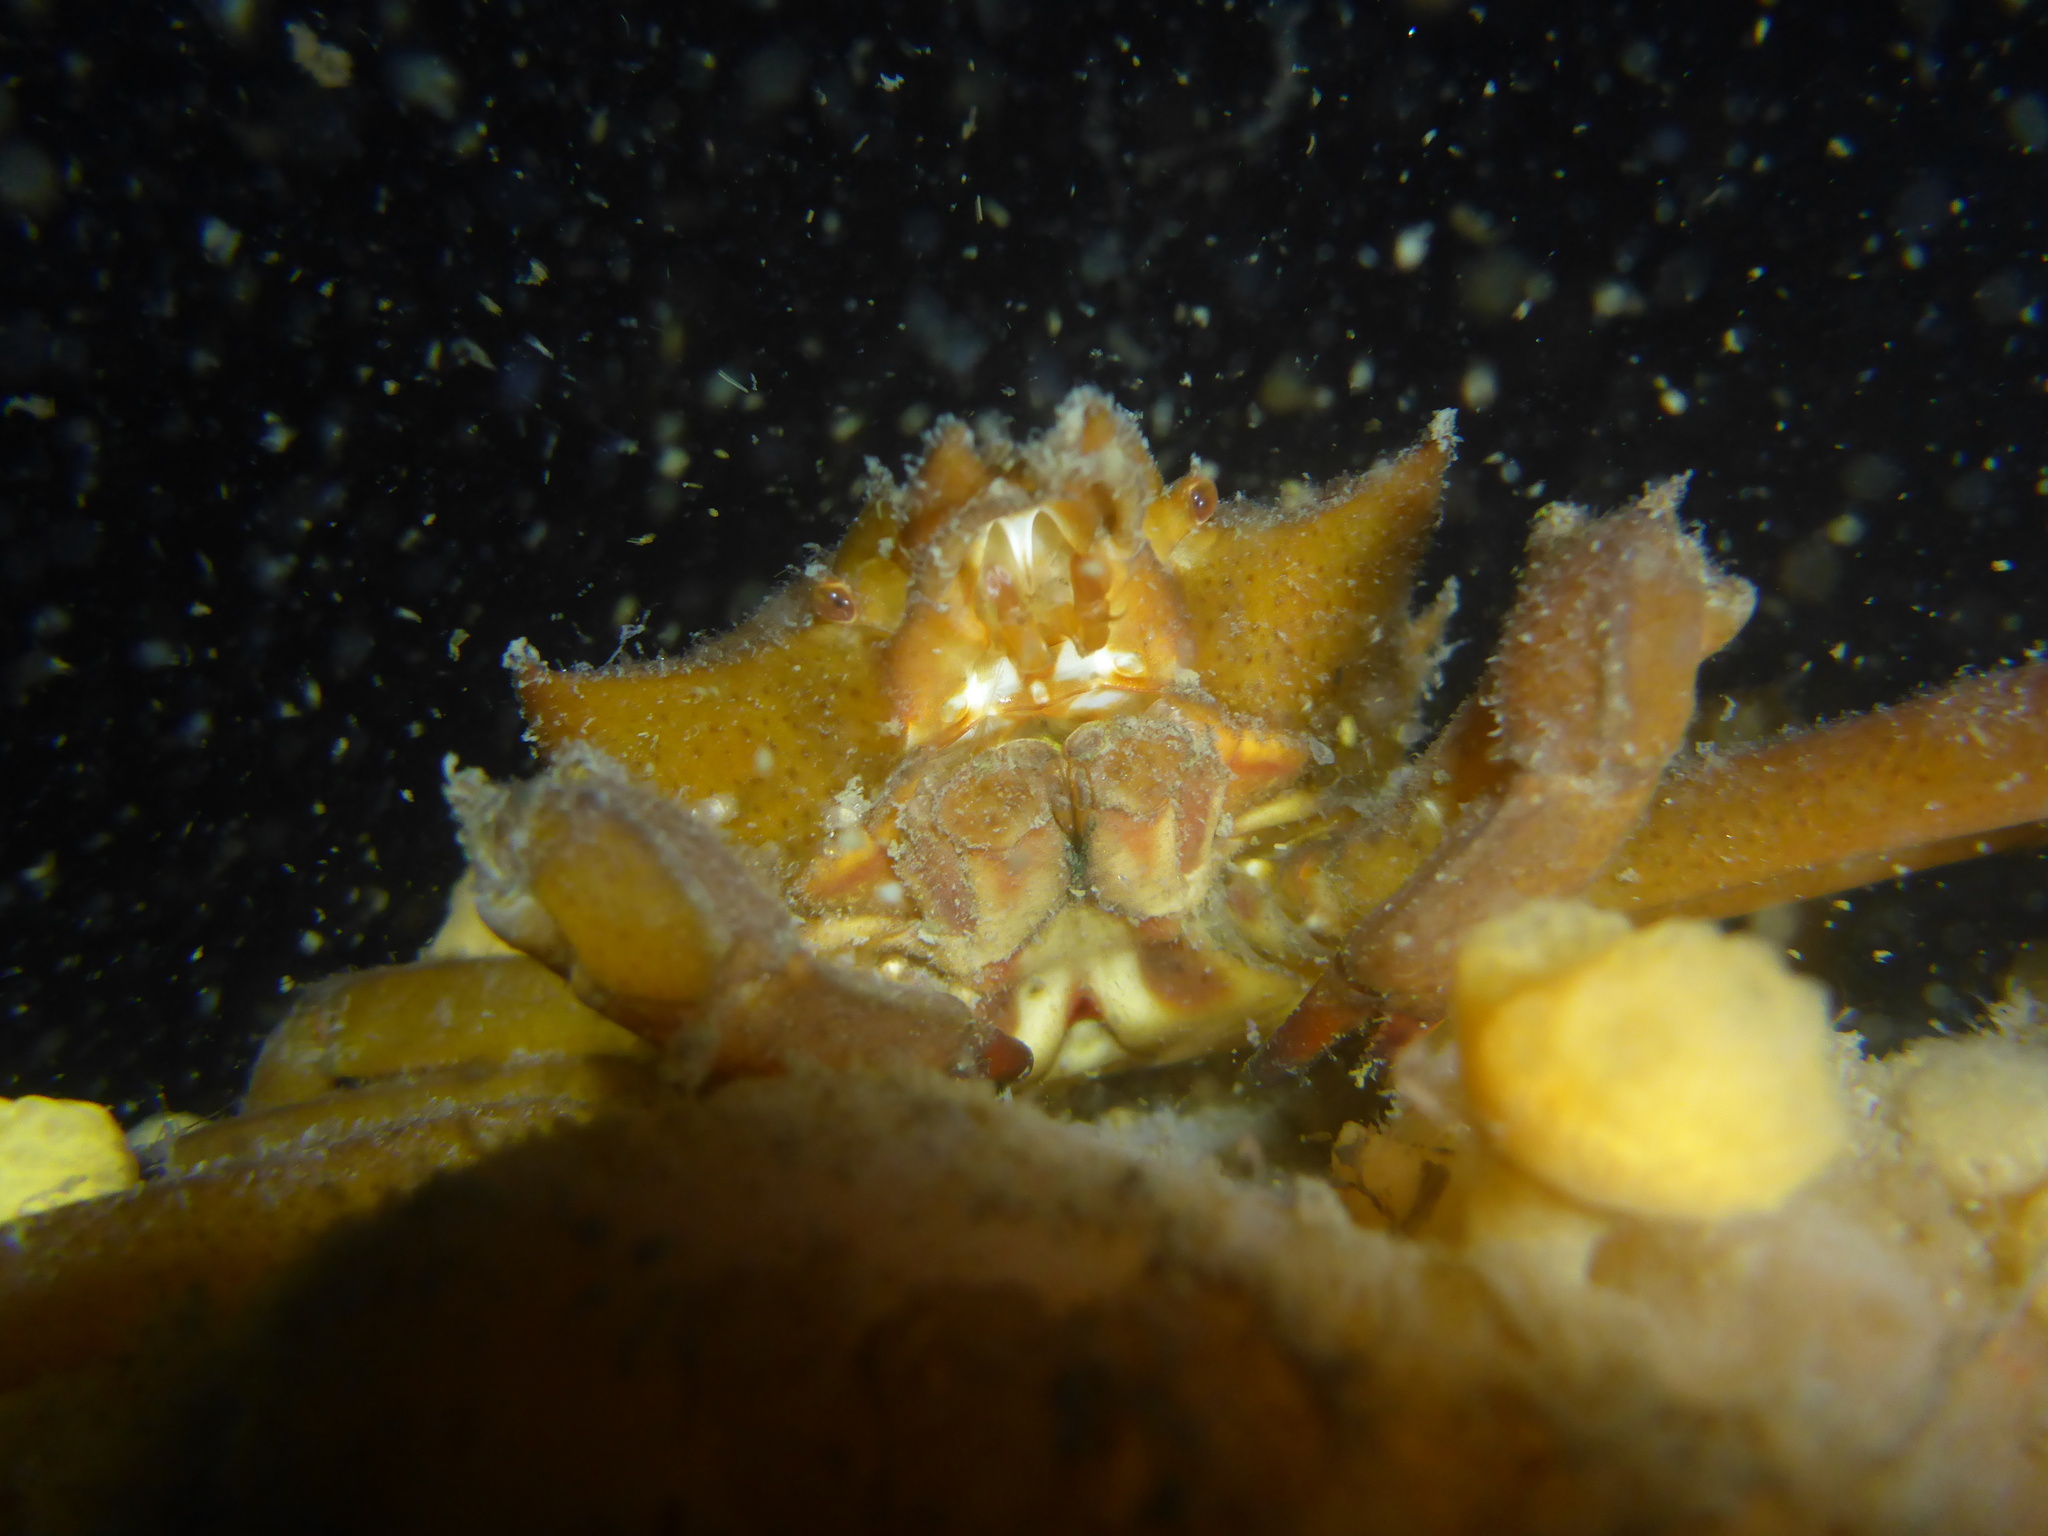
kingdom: Animalia
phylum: Arthropoda
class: Malacostraca
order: Decapoda
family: Epialtidae
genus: Pugettia
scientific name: Pugettia producta
